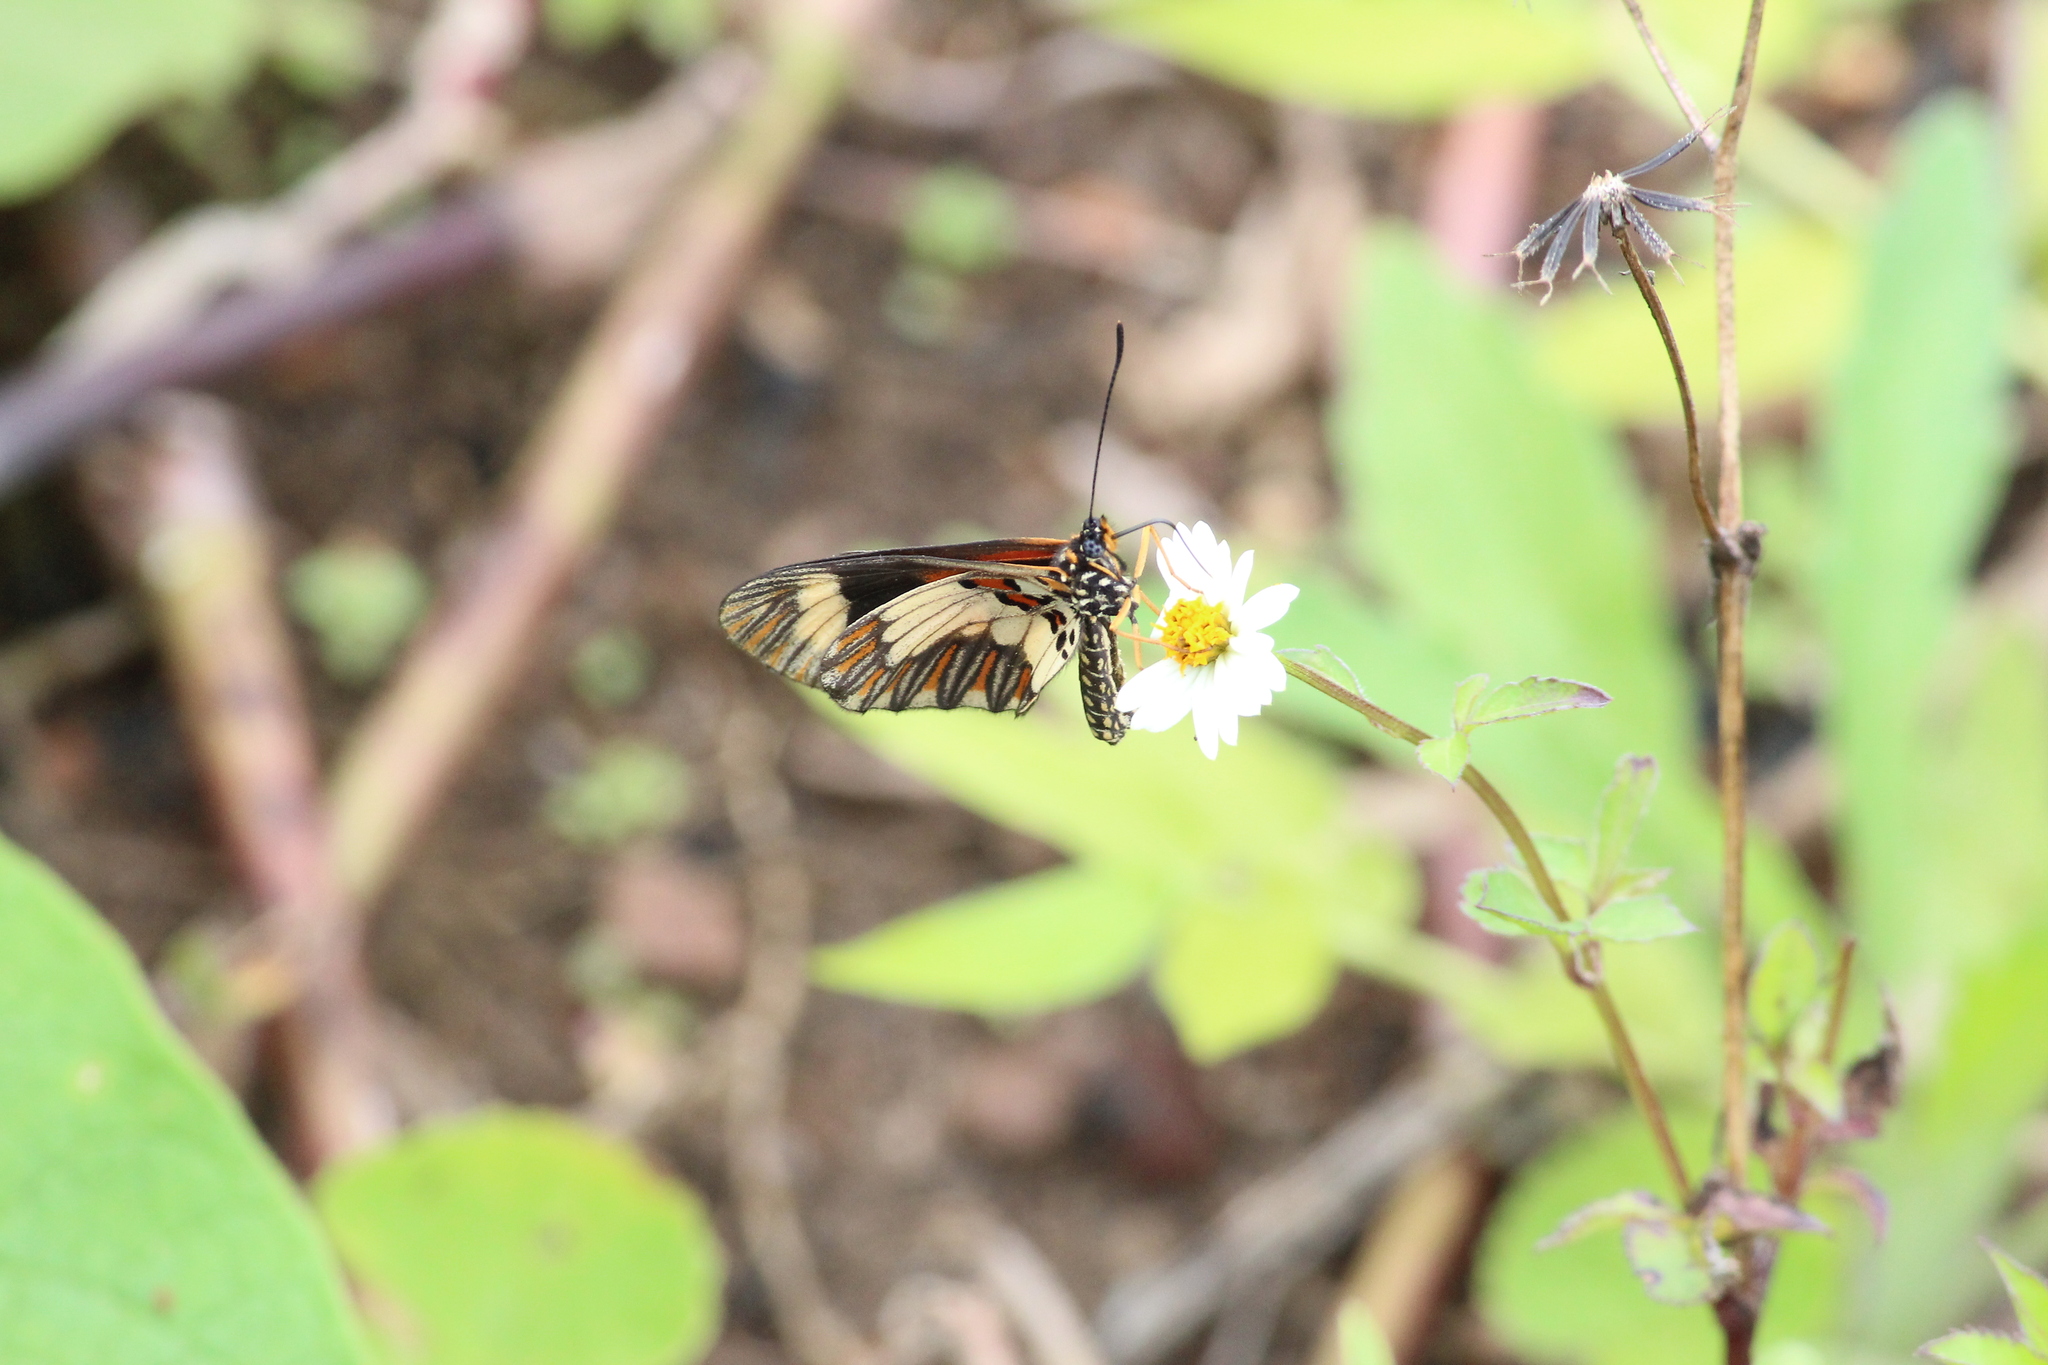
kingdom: Animalia
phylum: Arthropoda
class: Insecta
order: Lepidoptera
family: Nymphalidae
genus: Acraea
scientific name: Acraea cabira
